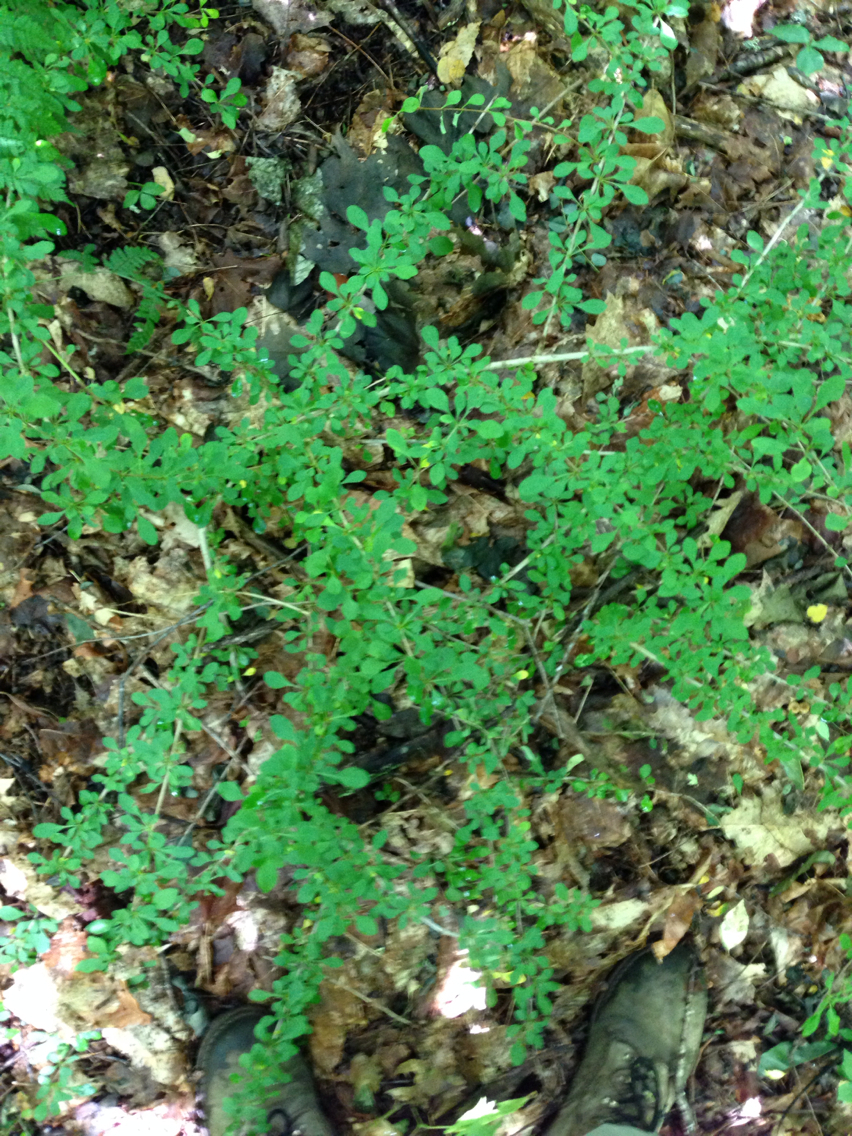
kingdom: Plantae
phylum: Tracheophyta
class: Magnoliopsida
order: Ranunculales
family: Berberidaceae
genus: Berberis
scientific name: Berberis thunbergii
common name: Japanese barberry
